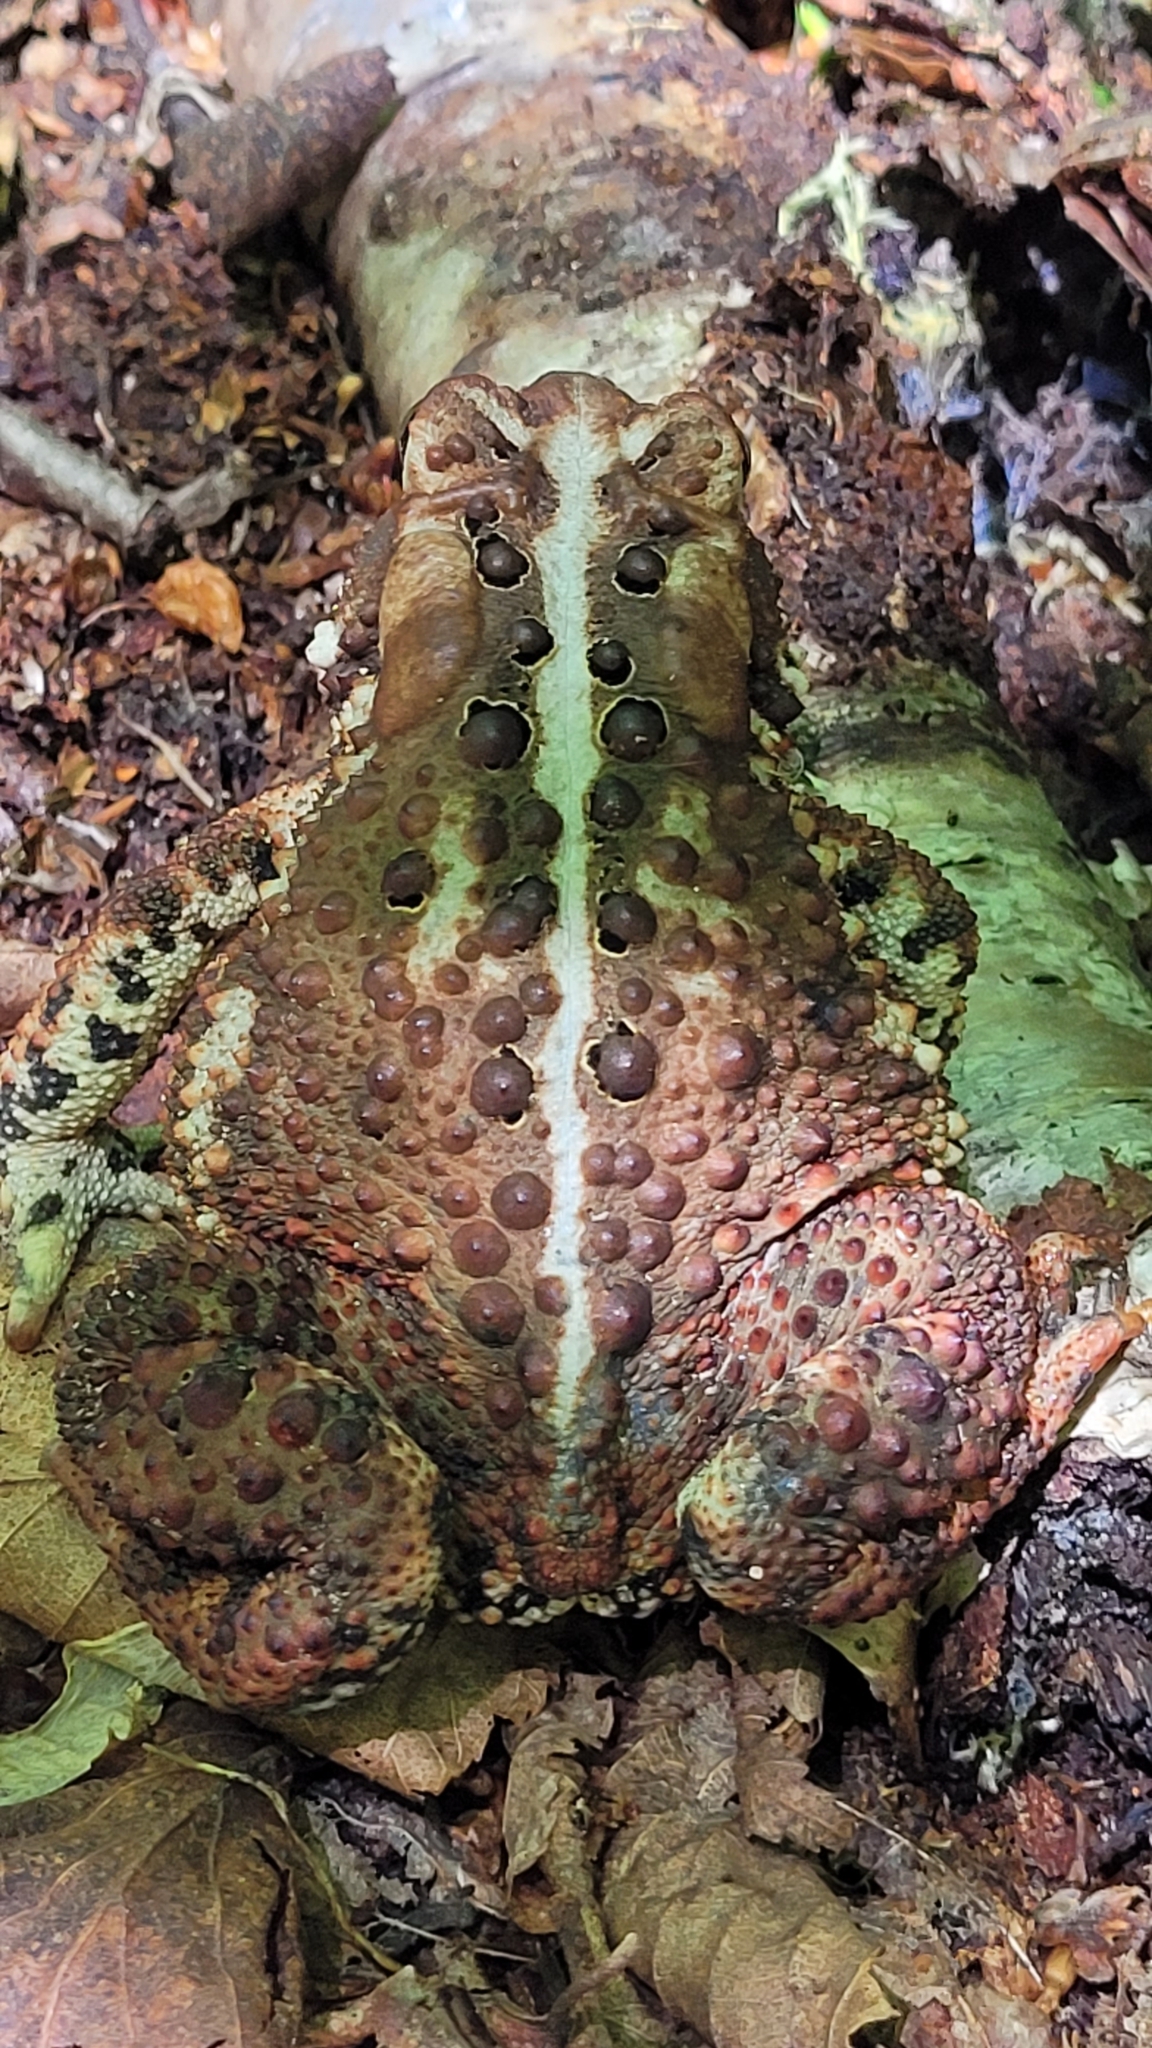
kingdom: Animalia
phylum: Chordata
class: Amphibia
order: Anura
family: Bufonidae
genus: Anaxyrus
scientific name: Anaxyrus americanus
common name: American toad
